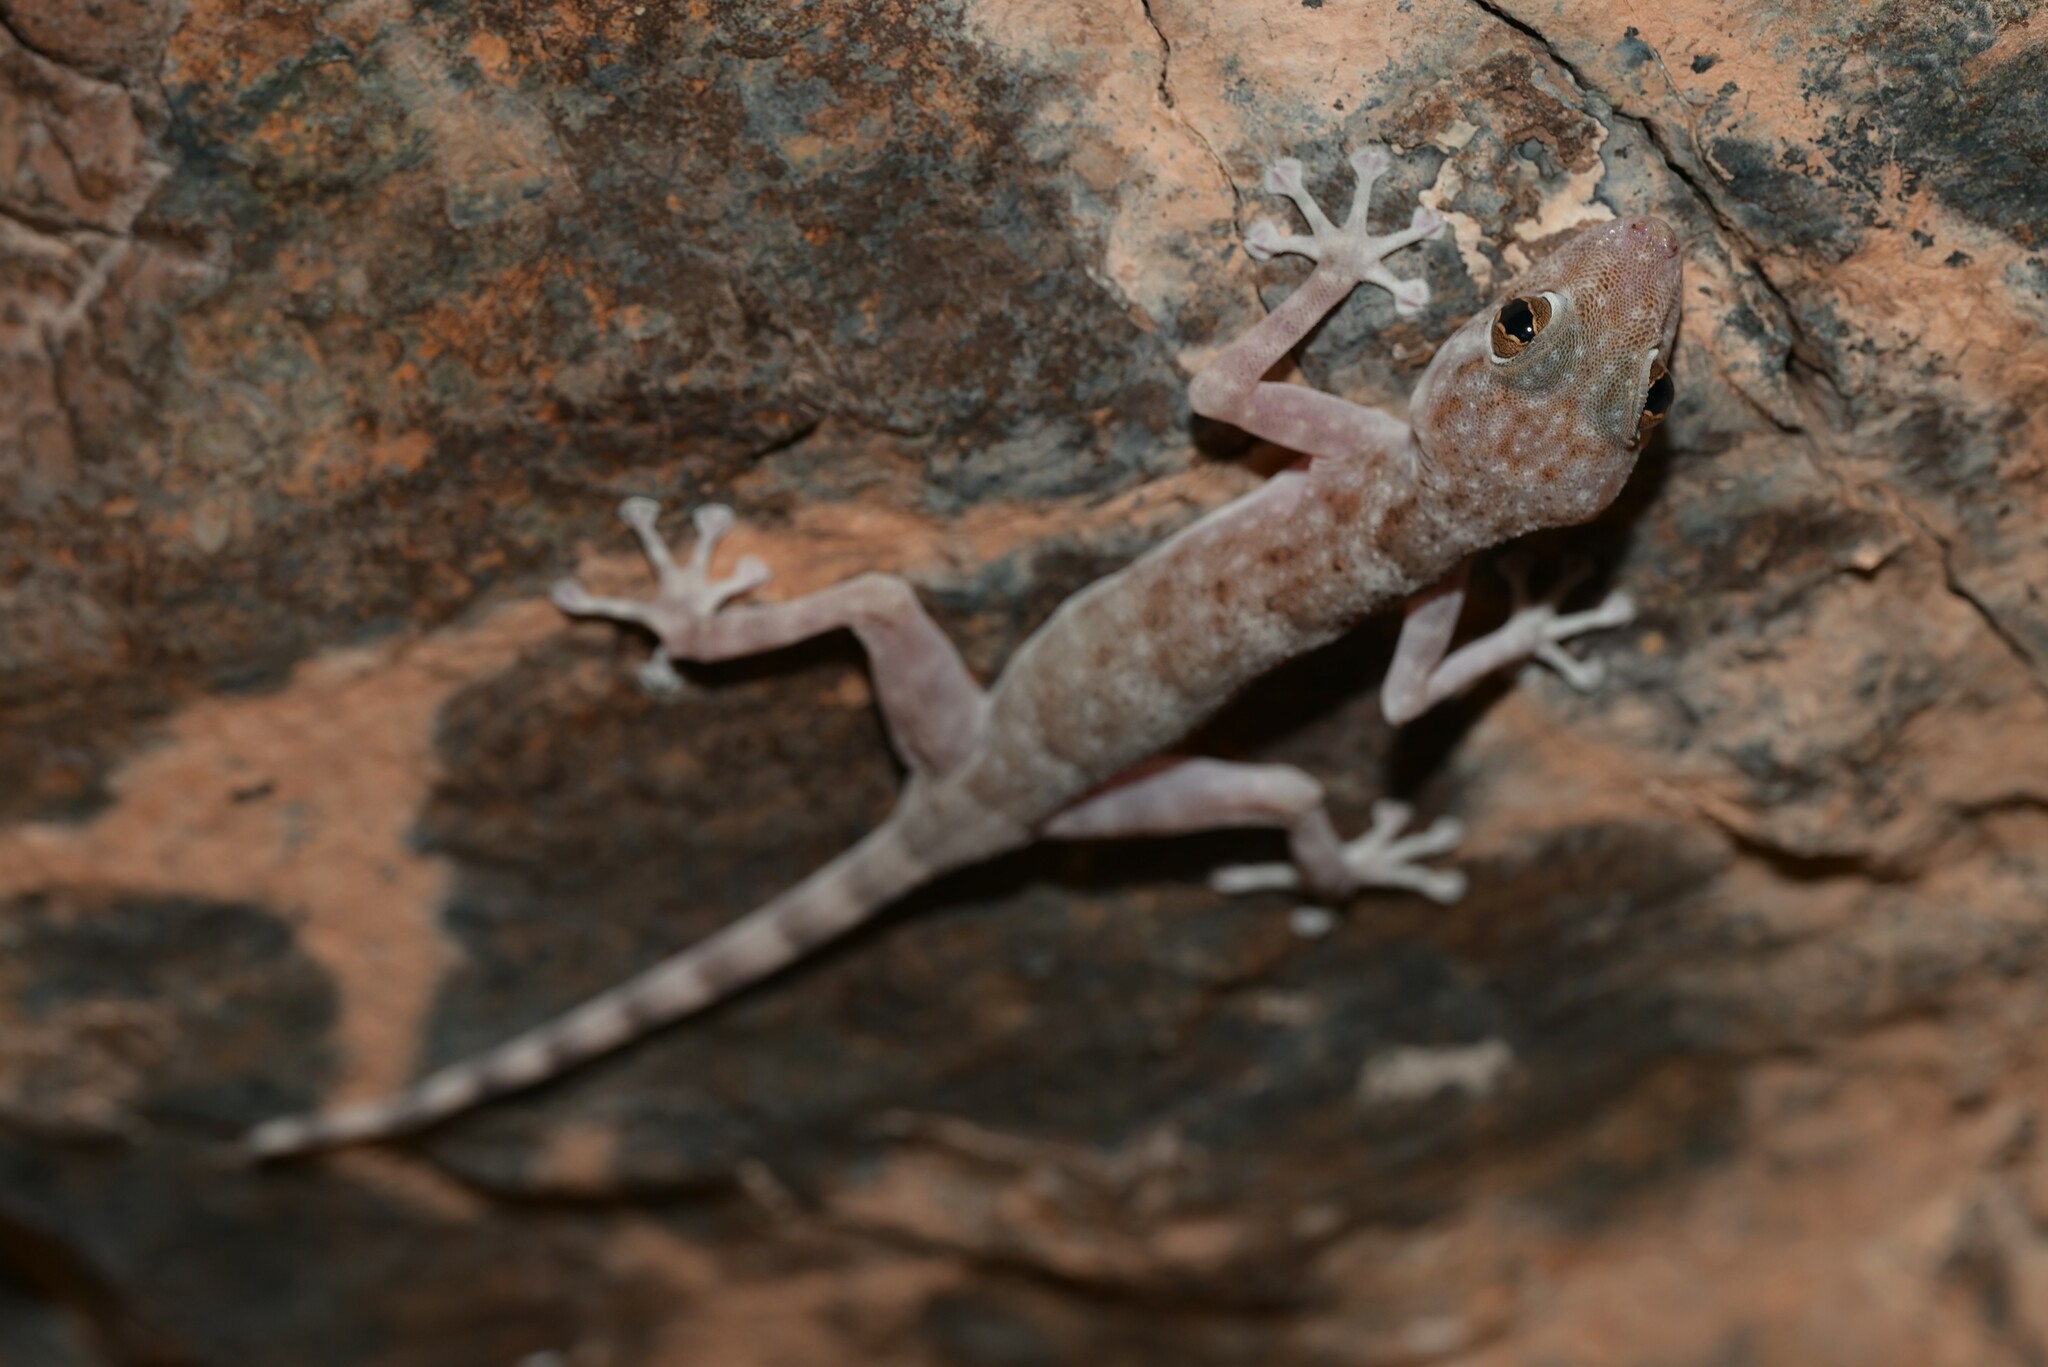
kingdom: Animalia
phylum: Chordata
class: Squamata
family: Phyllodactylidae
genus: Ptyodactylus
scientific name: Ptyodactylus orlovi
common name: Orlov's fan-footed gecko
